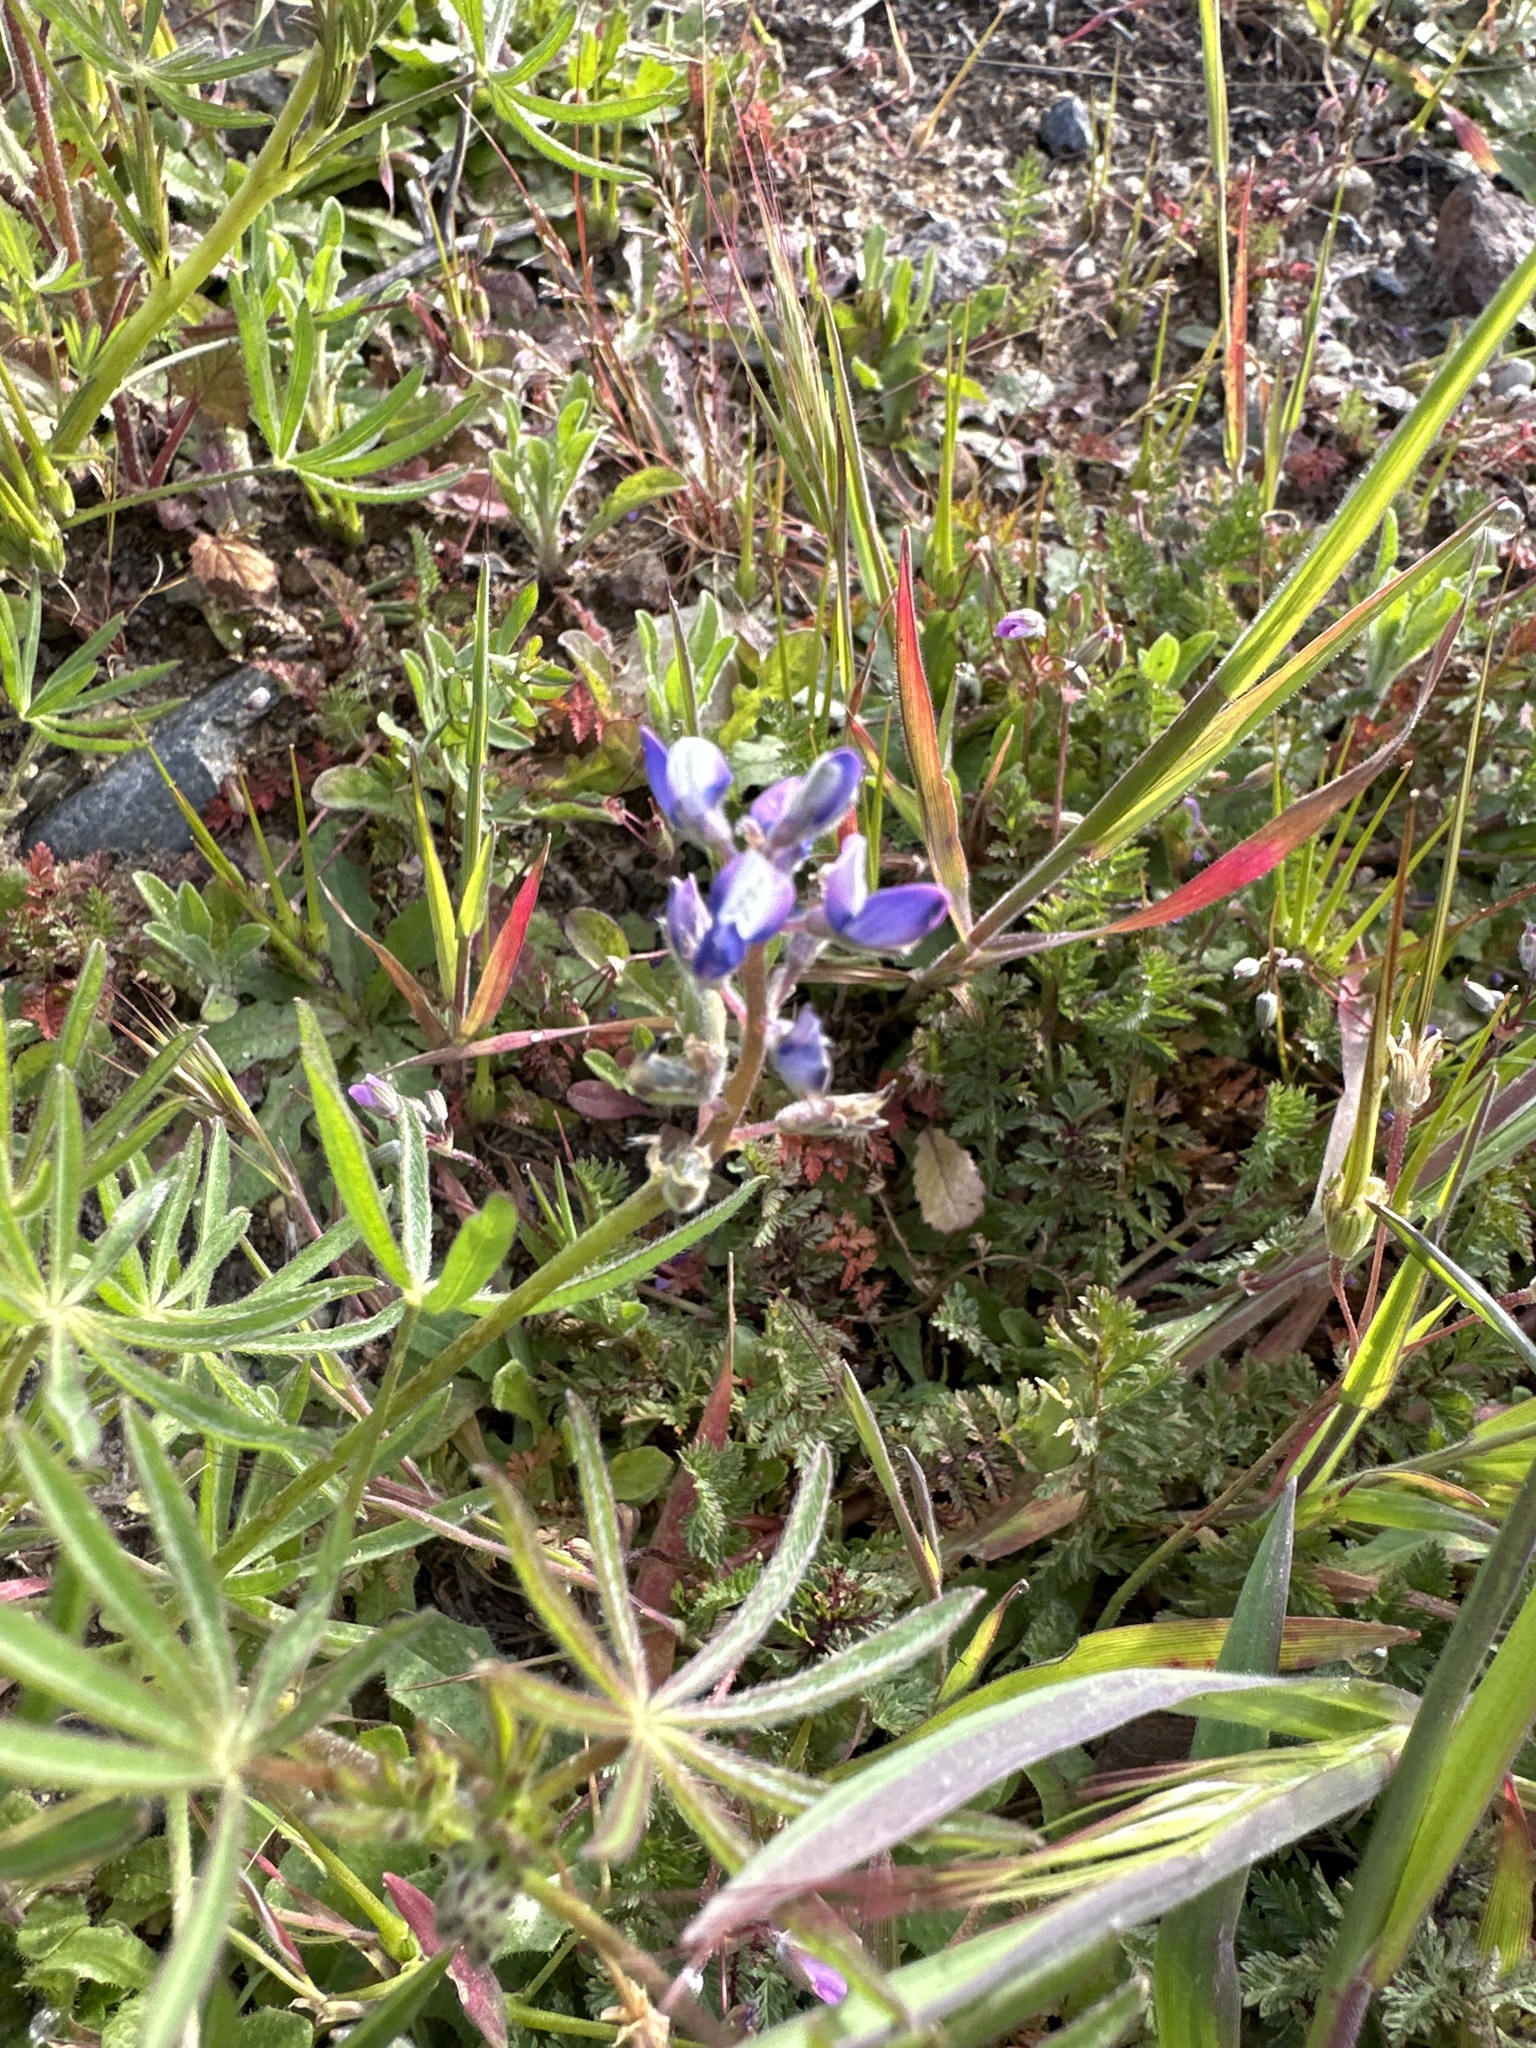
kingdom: Plantae
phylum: Tracheophyta
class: Magnoliopsida
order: Fabales
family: Fabaceae
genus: Lupinus
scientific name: Lupinus bicolor
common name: Miniature lupine
